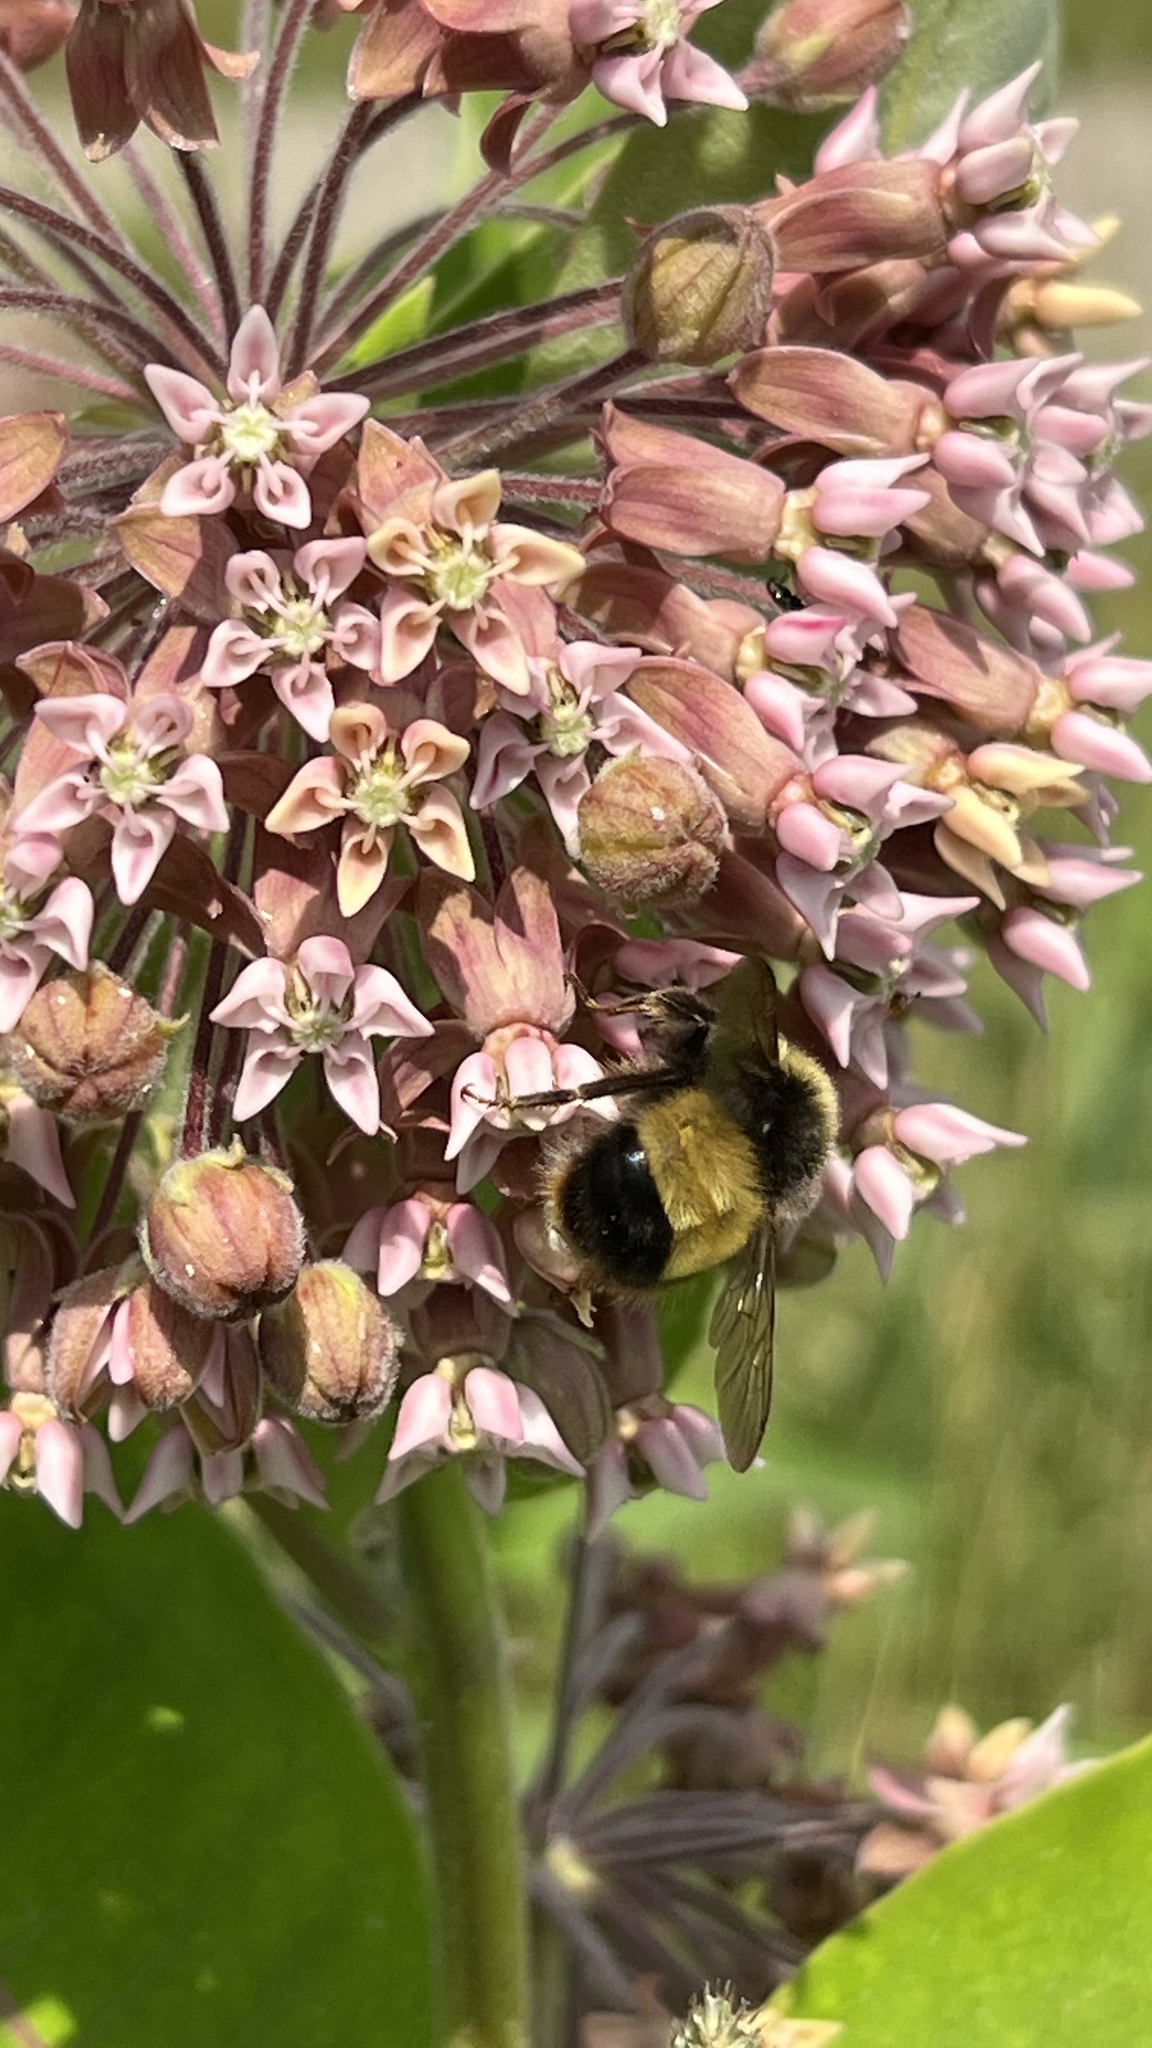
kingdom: Animalia
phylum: Arthropoda
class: Insecta
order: Hymenoptera
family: Apidae
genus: Bombus
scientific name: Bombus terricola
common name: Yellow-banded bumble bee
